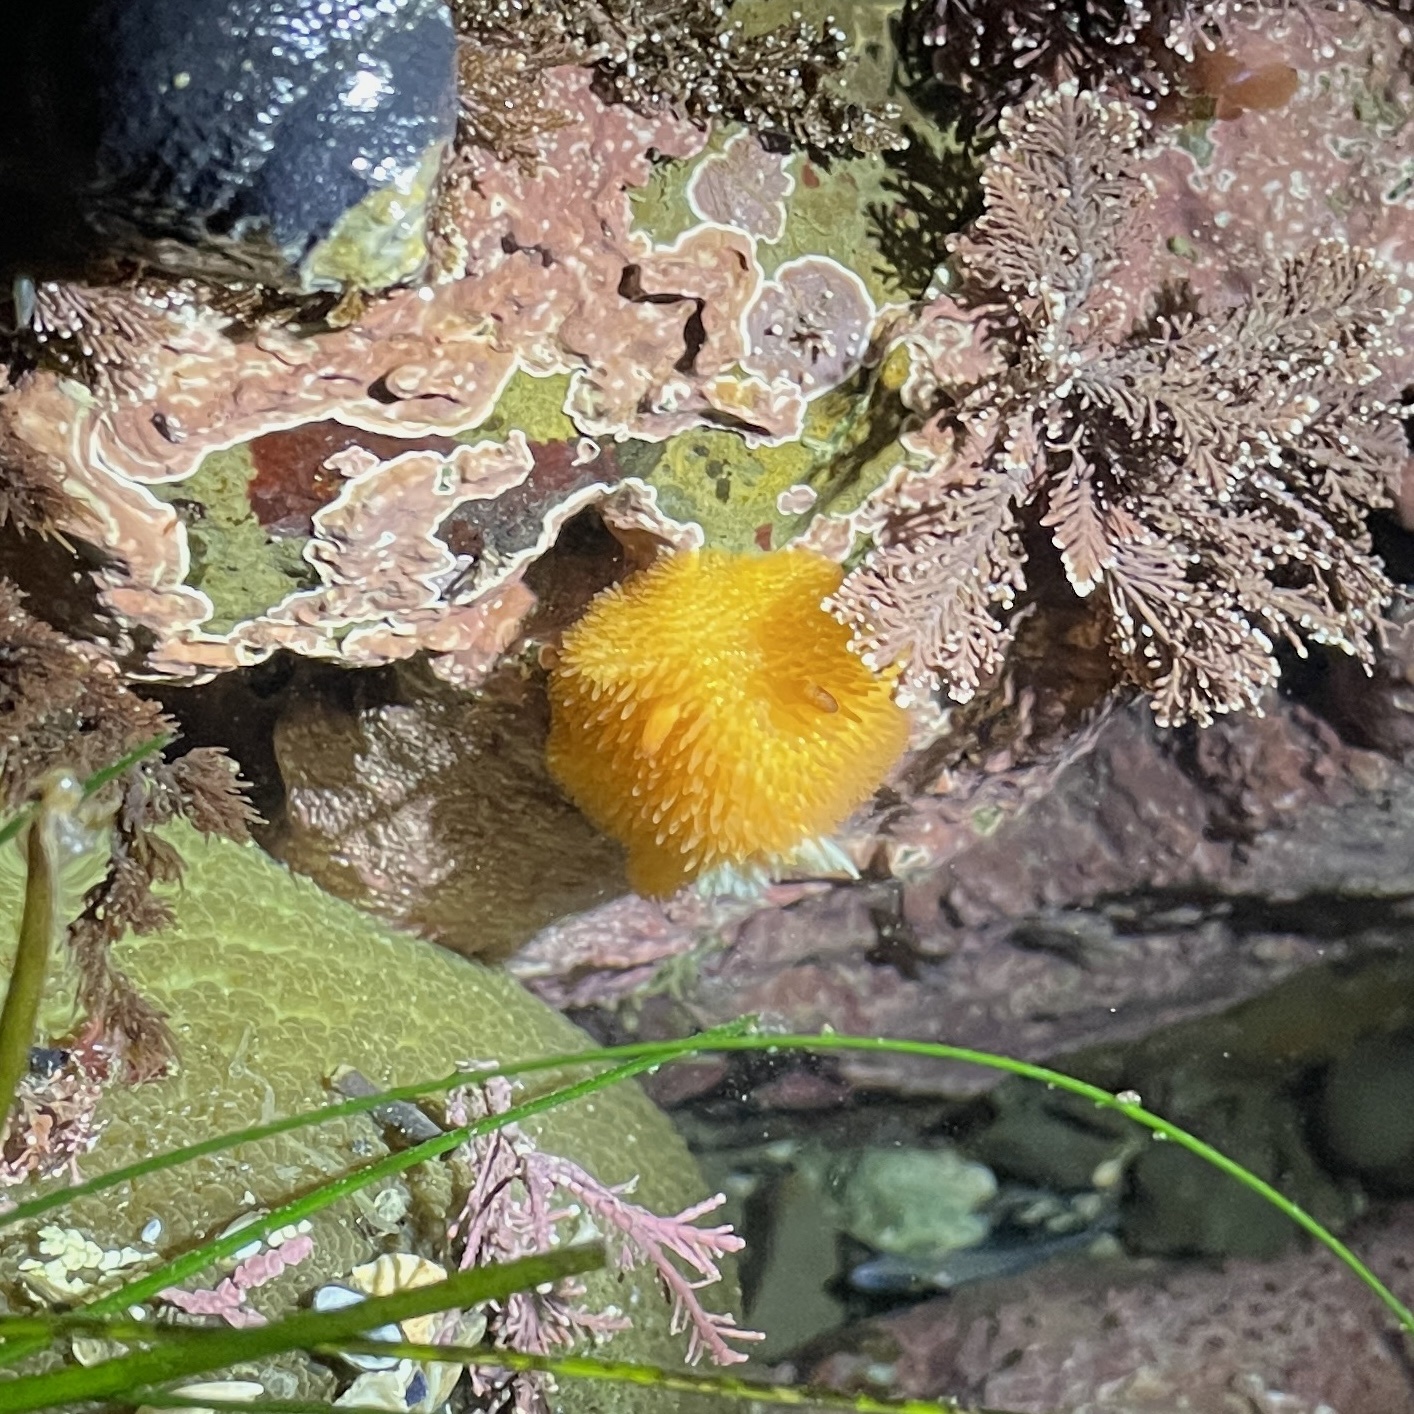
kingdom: Animalia
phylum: Mollusca
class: Gastropoda
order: Nudibranchia
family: Onchidorididae
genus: Acanthodoris
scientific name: Acanthodoris lutea
